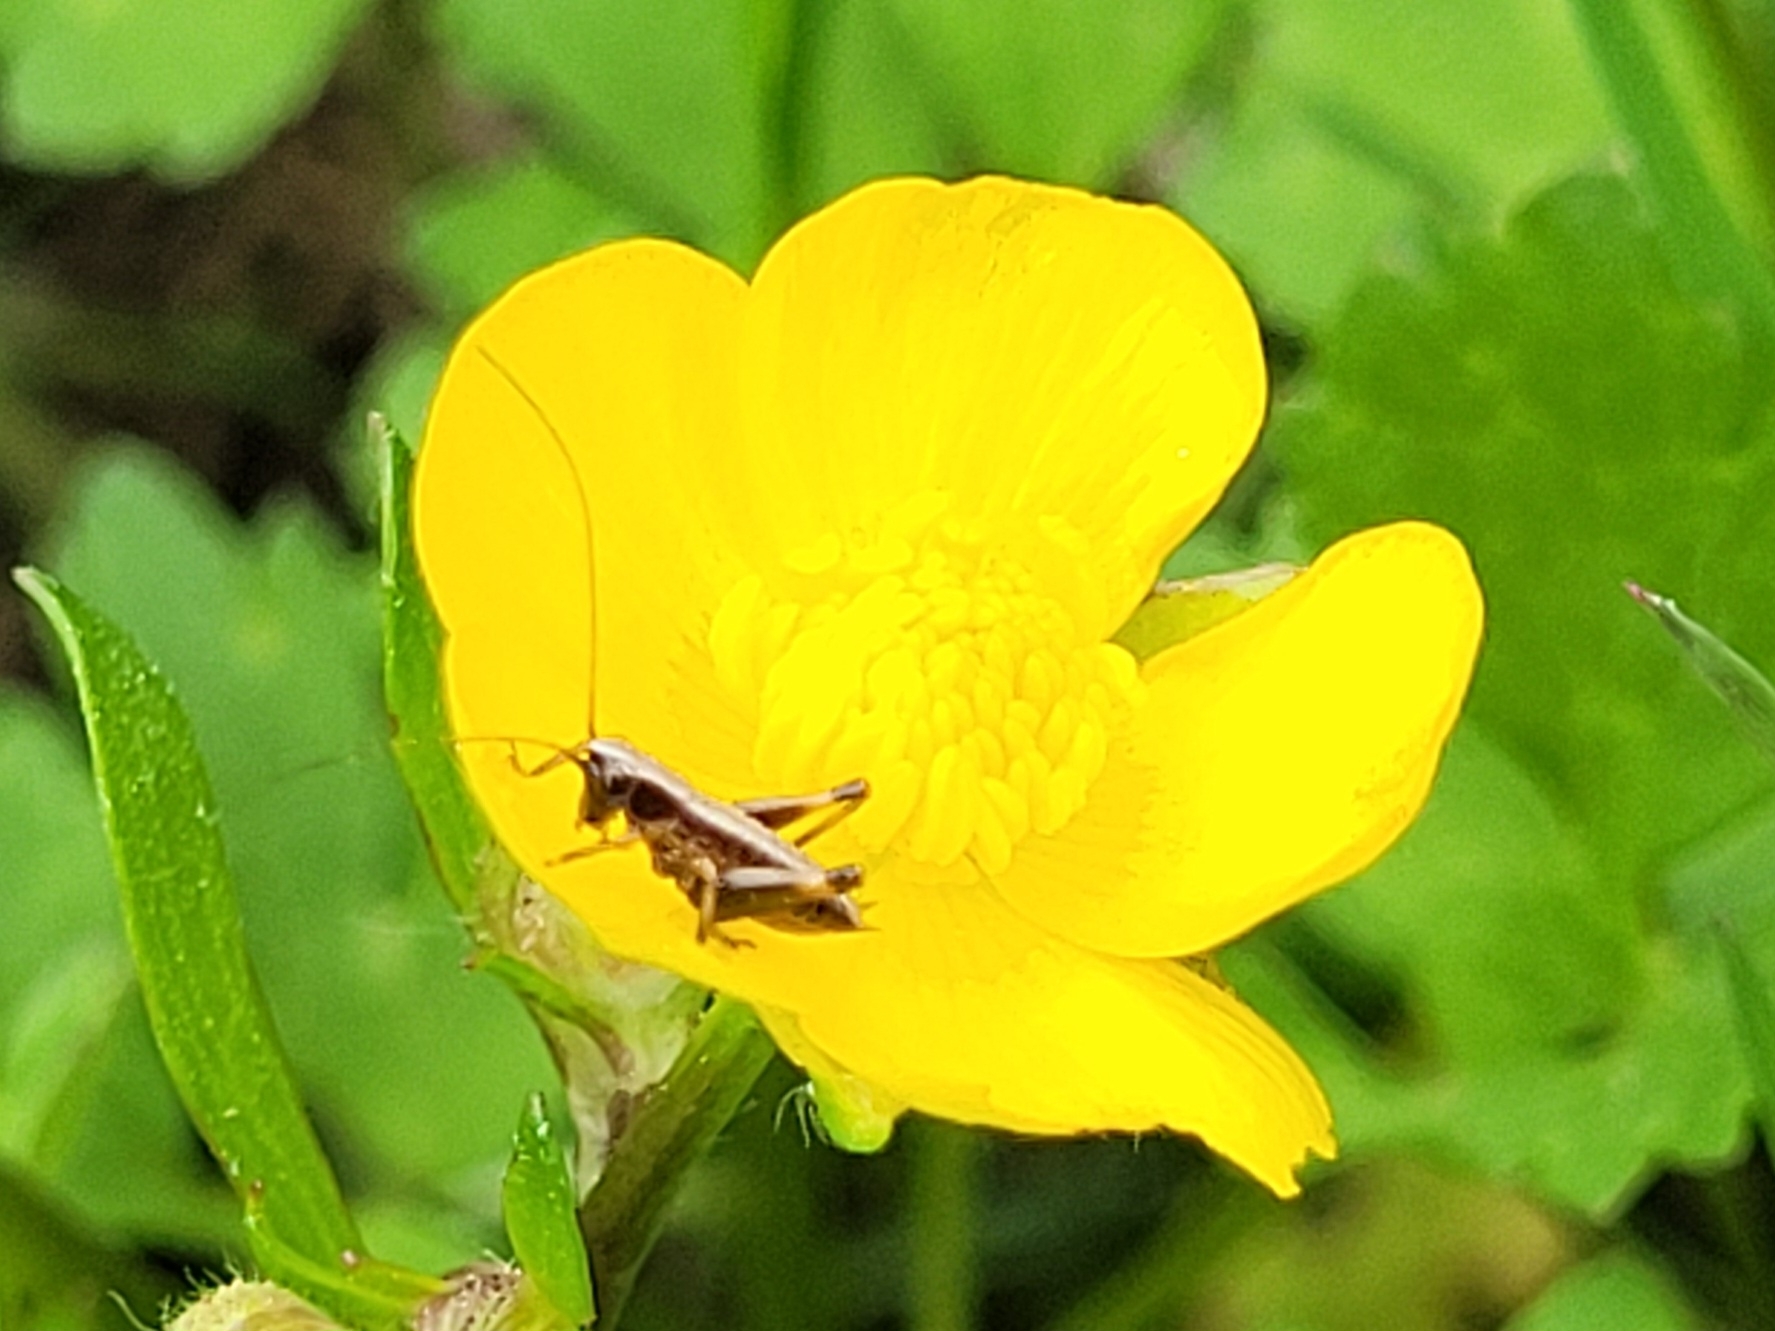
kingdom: Animalia
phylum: Arthropoda
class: Insecta
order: Orthoptera
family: Tettigoniidae
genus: Pholidoptera
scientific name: Pholidoptera griseoaptera
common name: Dark bush-cricket
